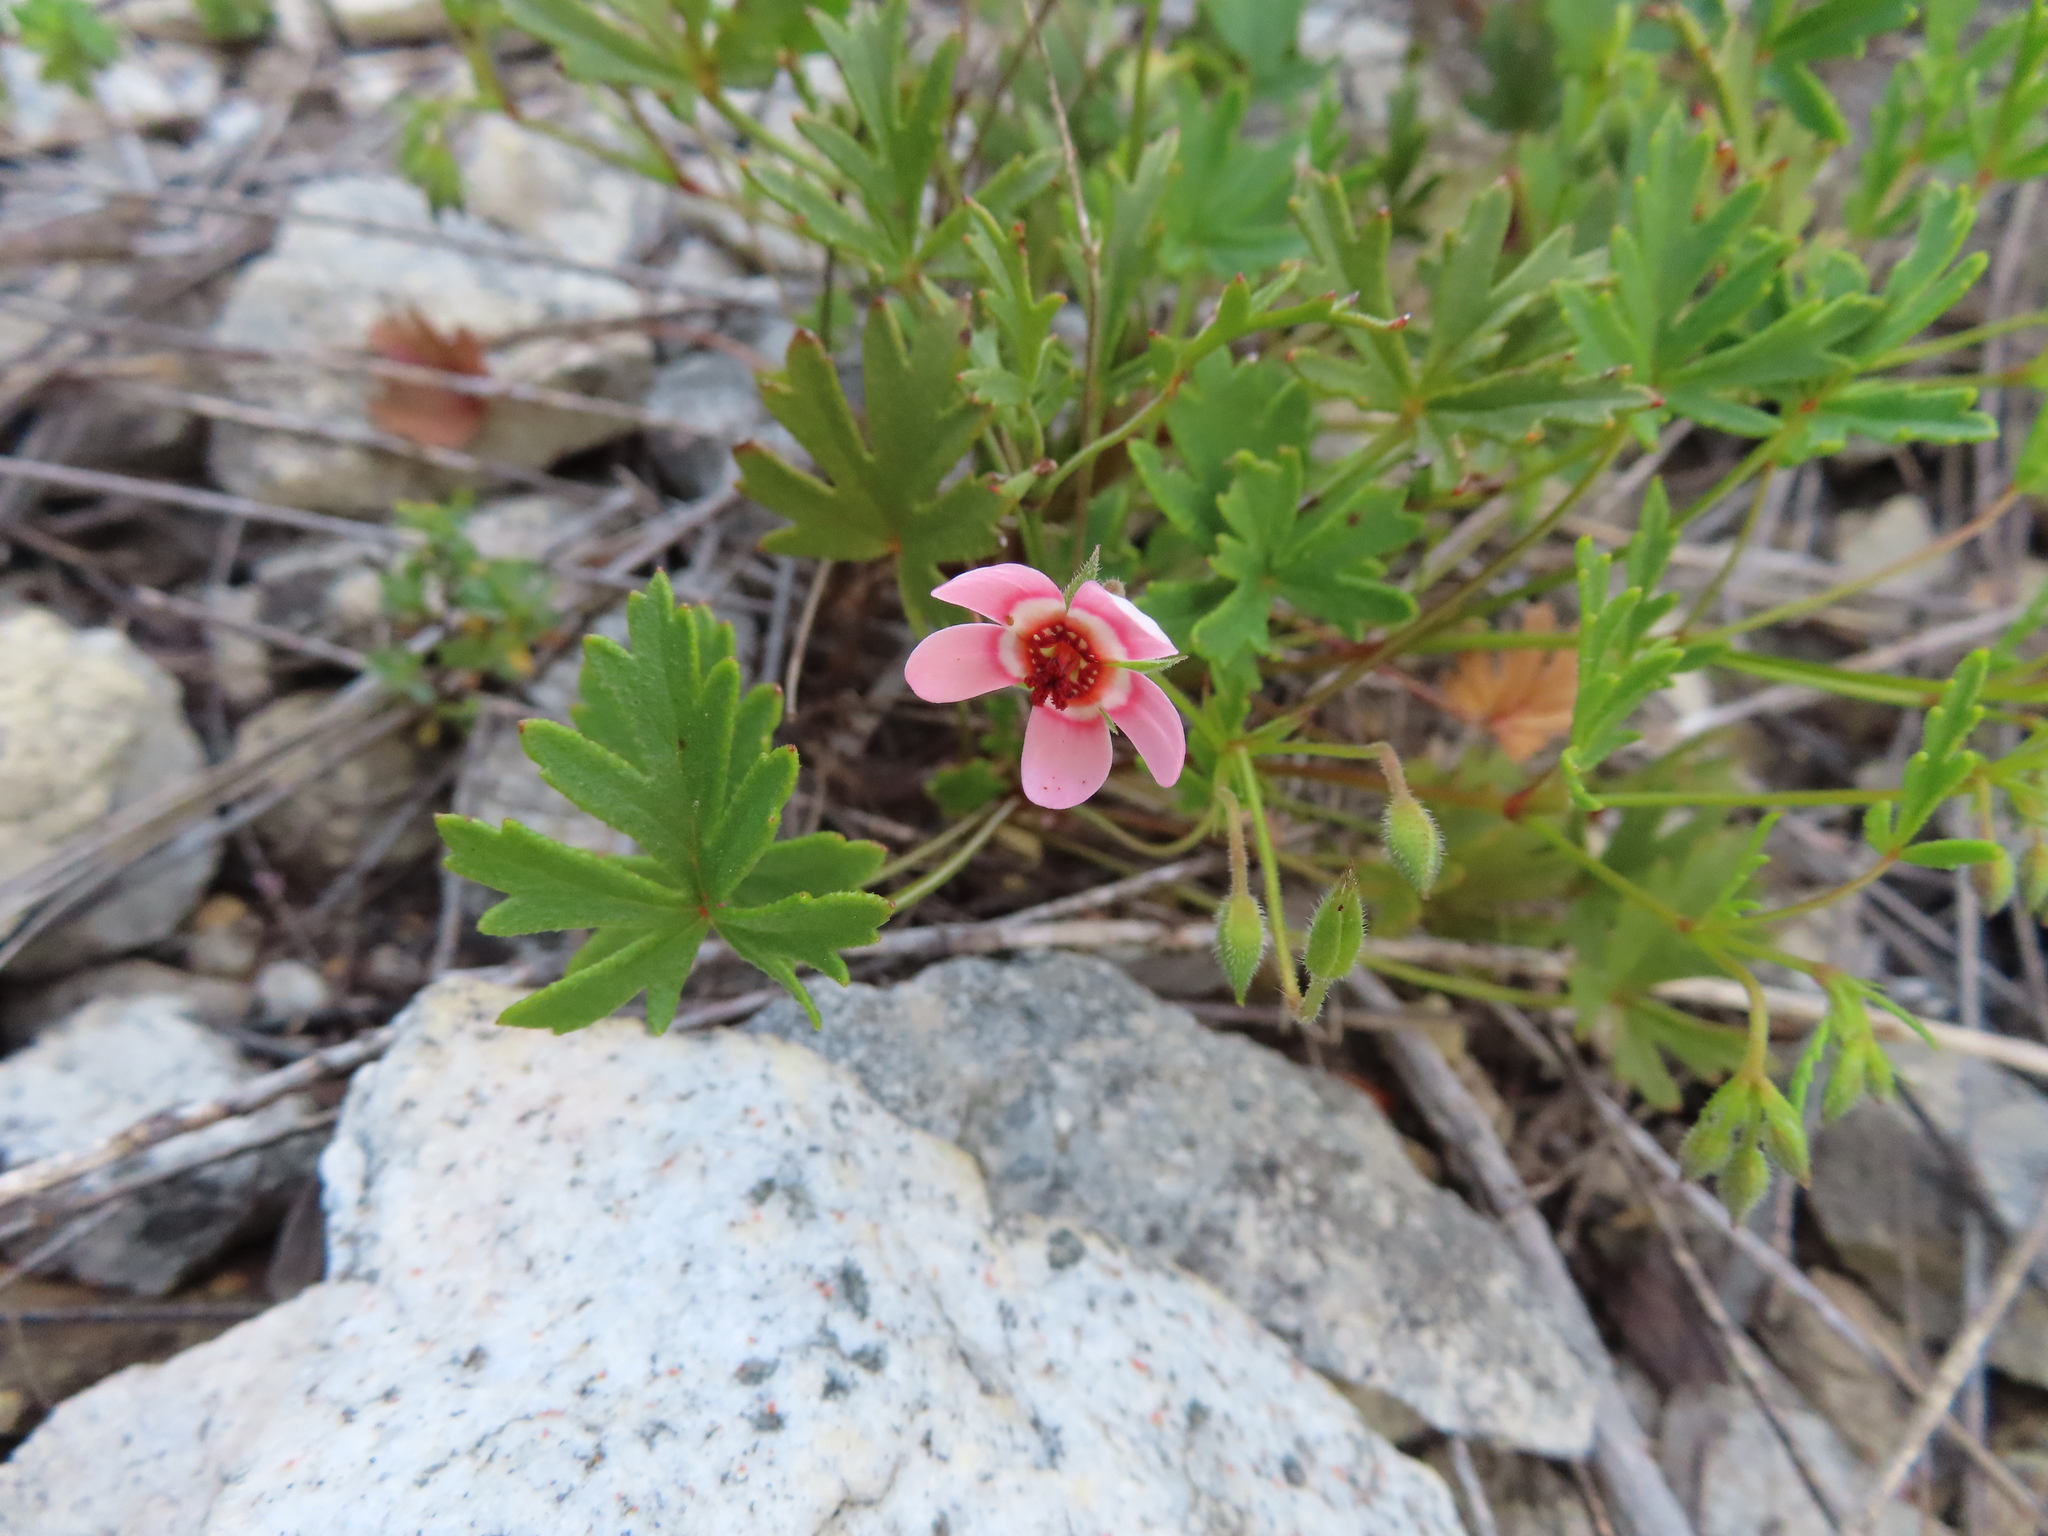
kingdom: Plantae
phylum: Tracheophyta
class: Magnoliopsida
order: Geraniales
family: Geraniaceae
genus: Pelargonium
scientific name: Pelargonium incarnatum
